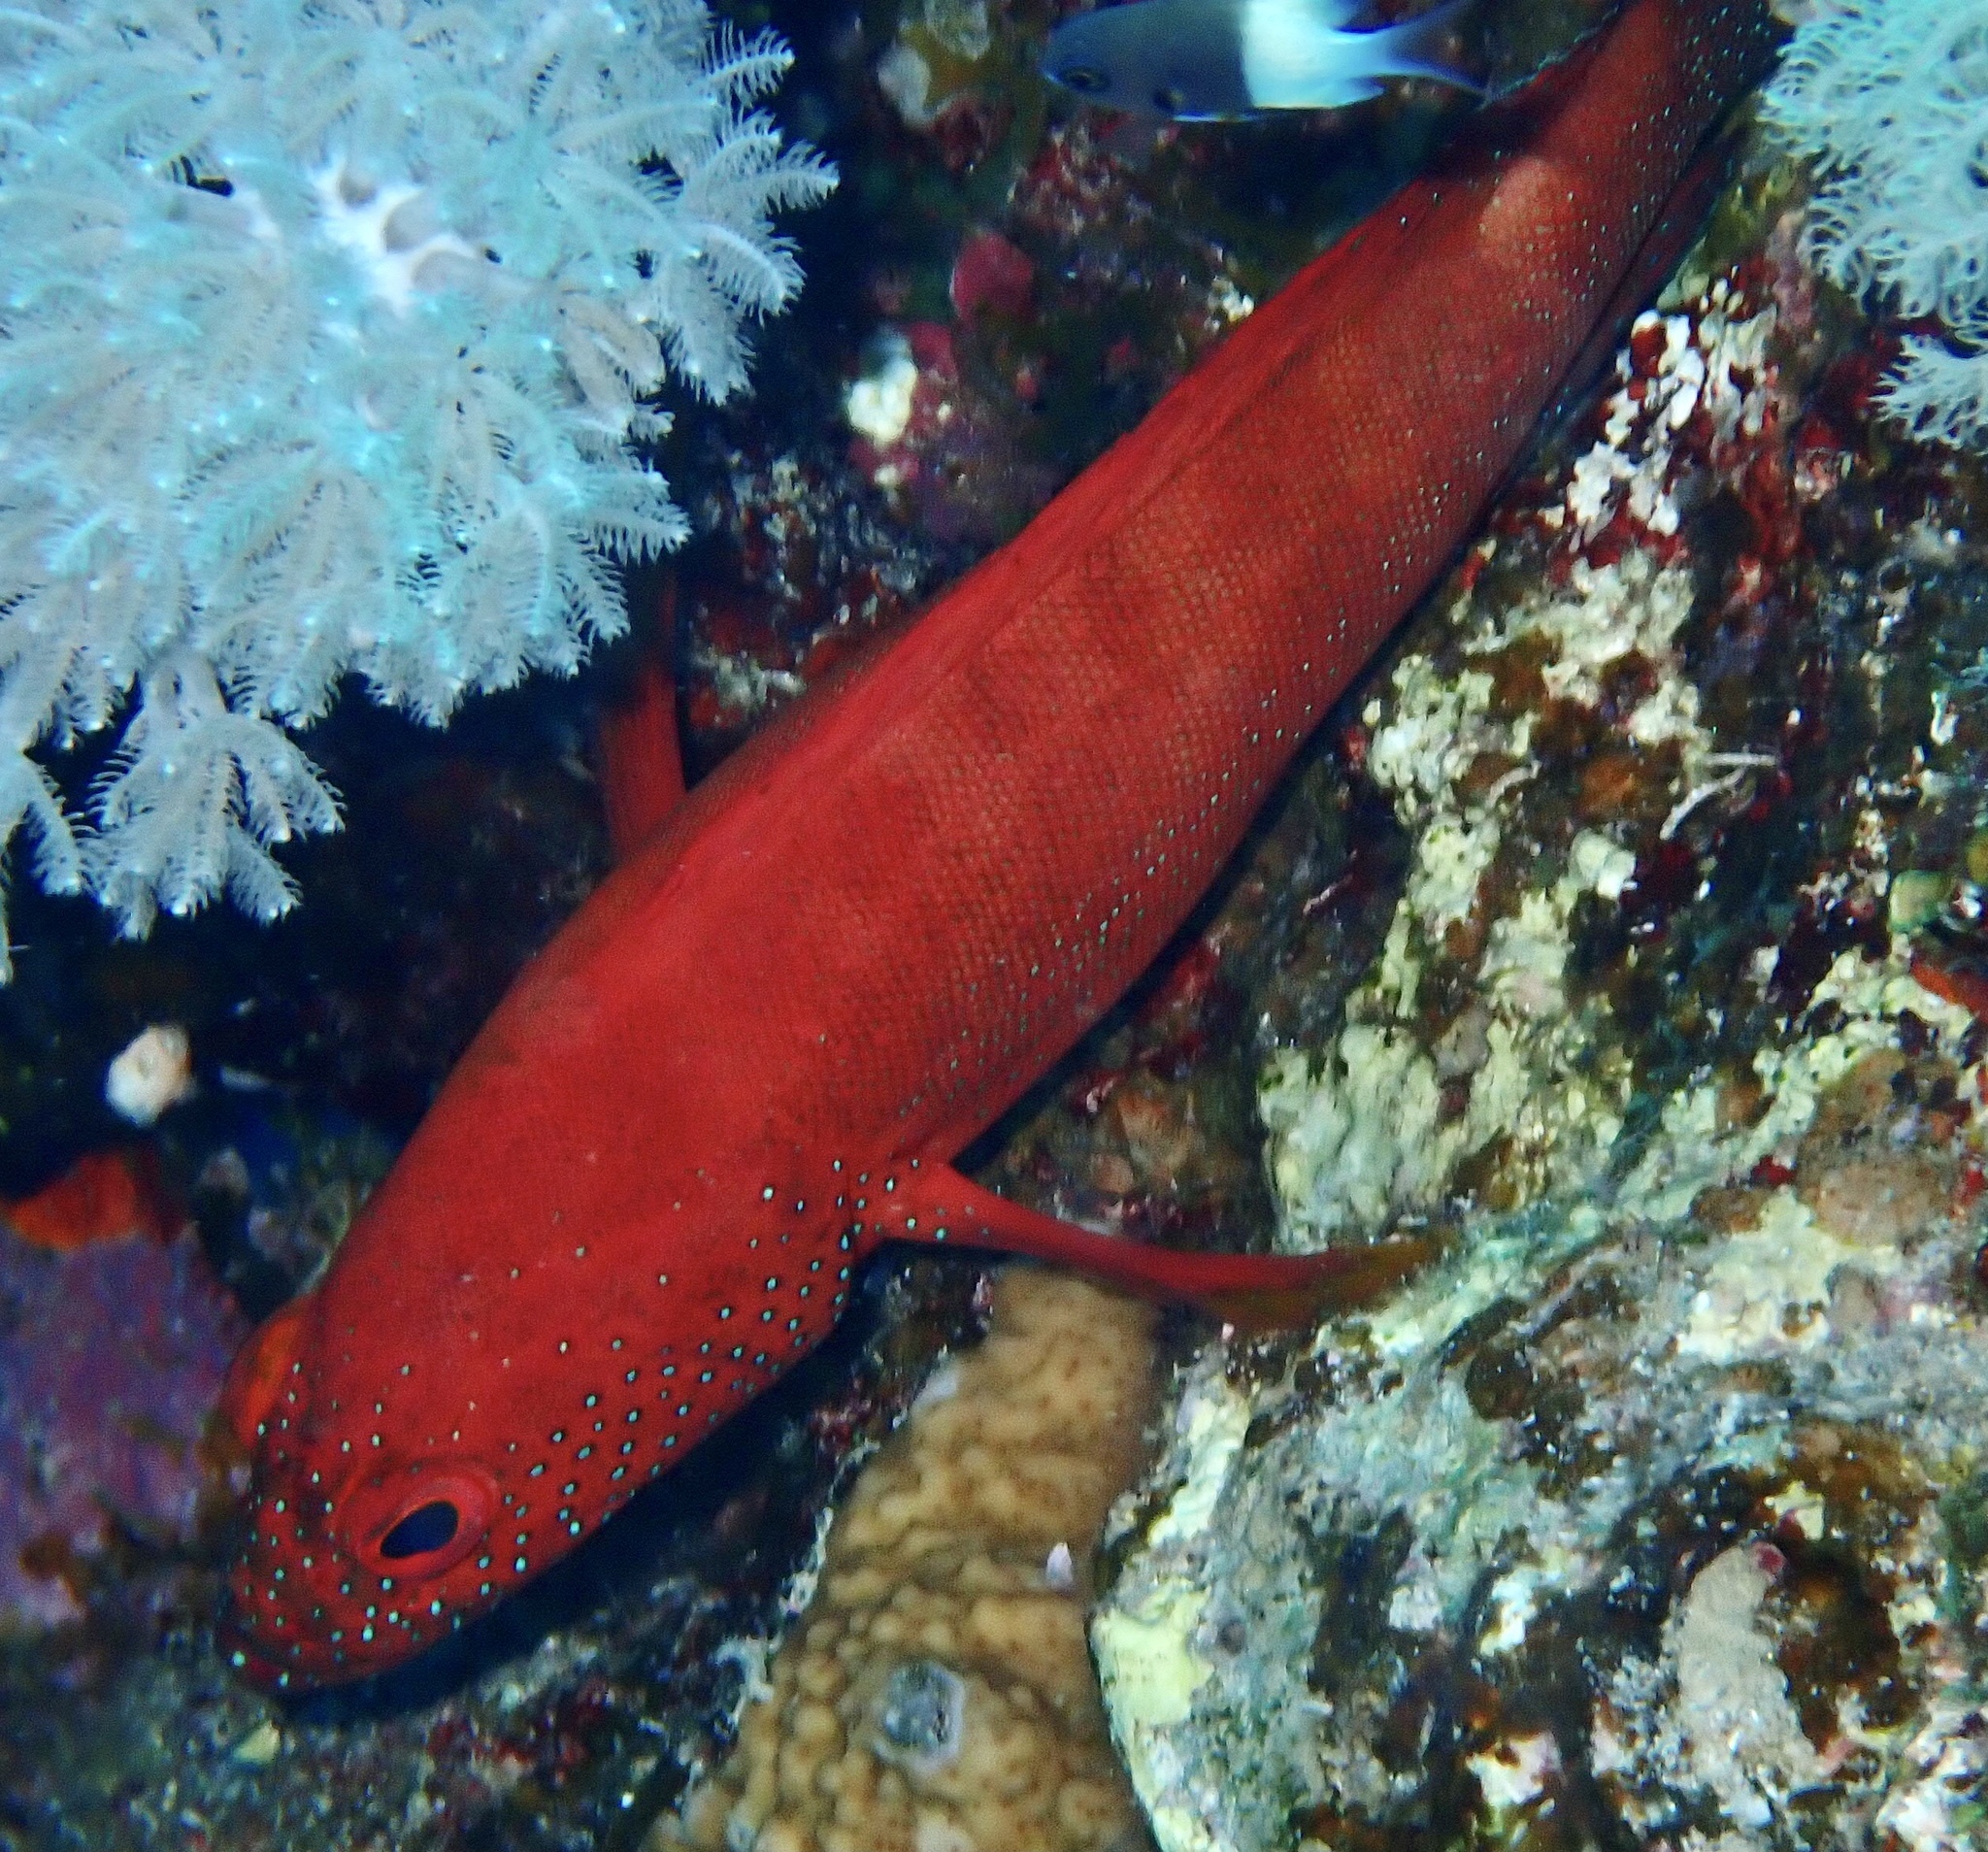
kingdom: Animalia
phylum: Chordata
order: Perciformes
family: Serranidae
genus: Cephalopholis
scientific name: Cephalopholis hemistiktos
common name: Halfspotted hind
